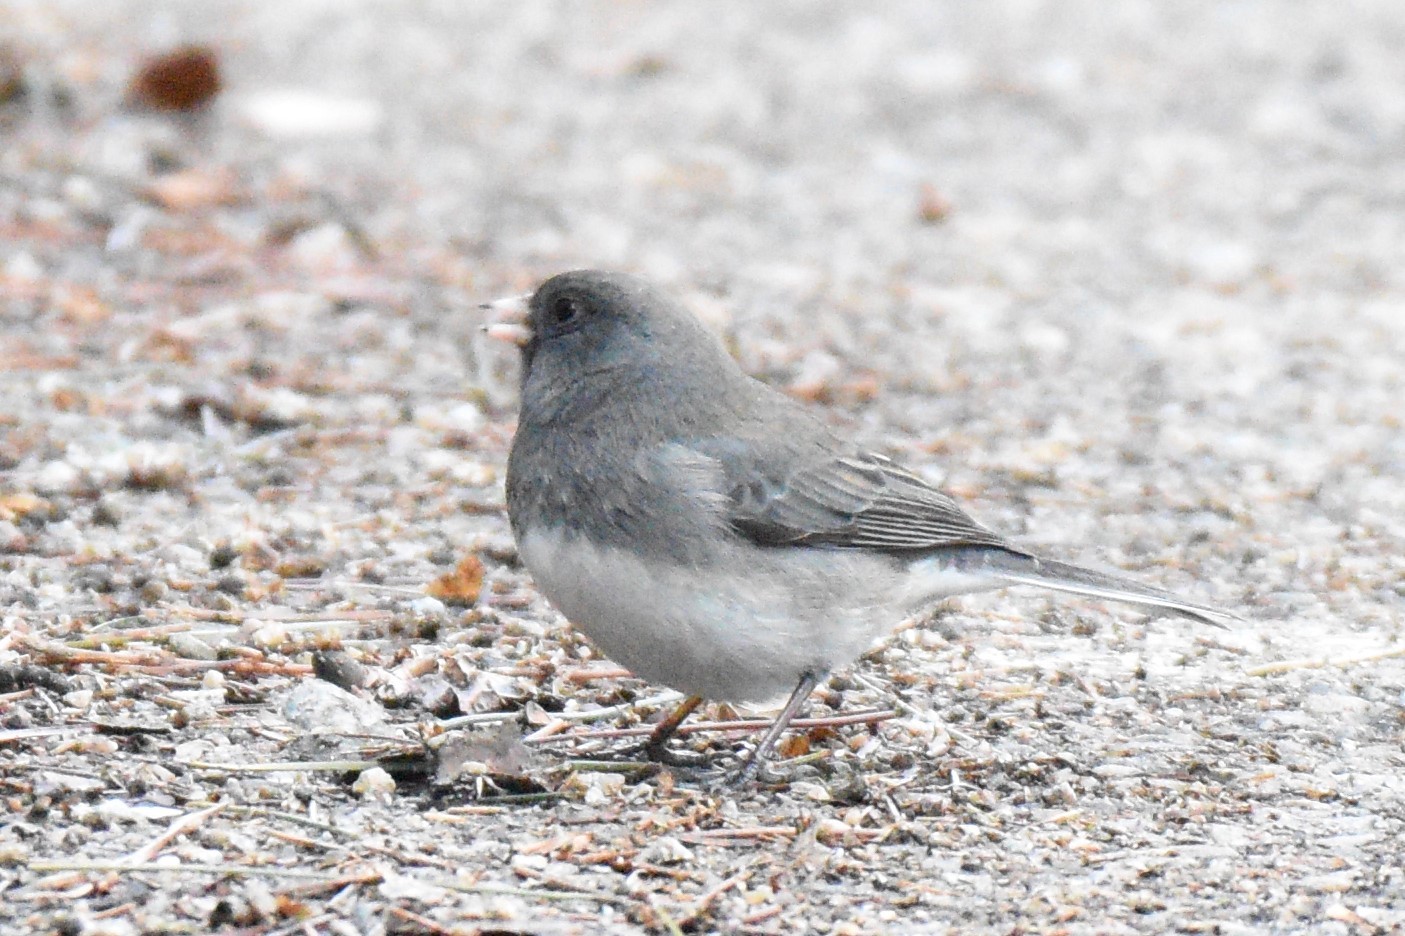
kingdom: Animalia
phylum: Chordata
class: Aves
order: Passeriformes
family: Passerellidae
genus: Junco
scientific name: Junco hyemalis
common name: Dark-eyed junco
